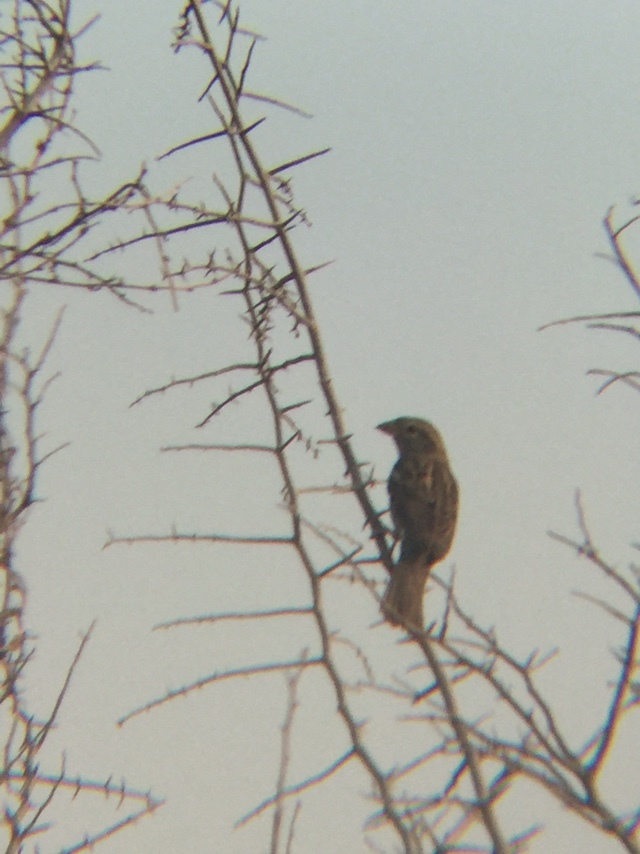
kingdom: Animalia
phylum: Chordata
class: Aves
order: Passeriformes
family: Passeridae
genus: Passer
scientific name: Passer domesticus
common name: House sparrow
